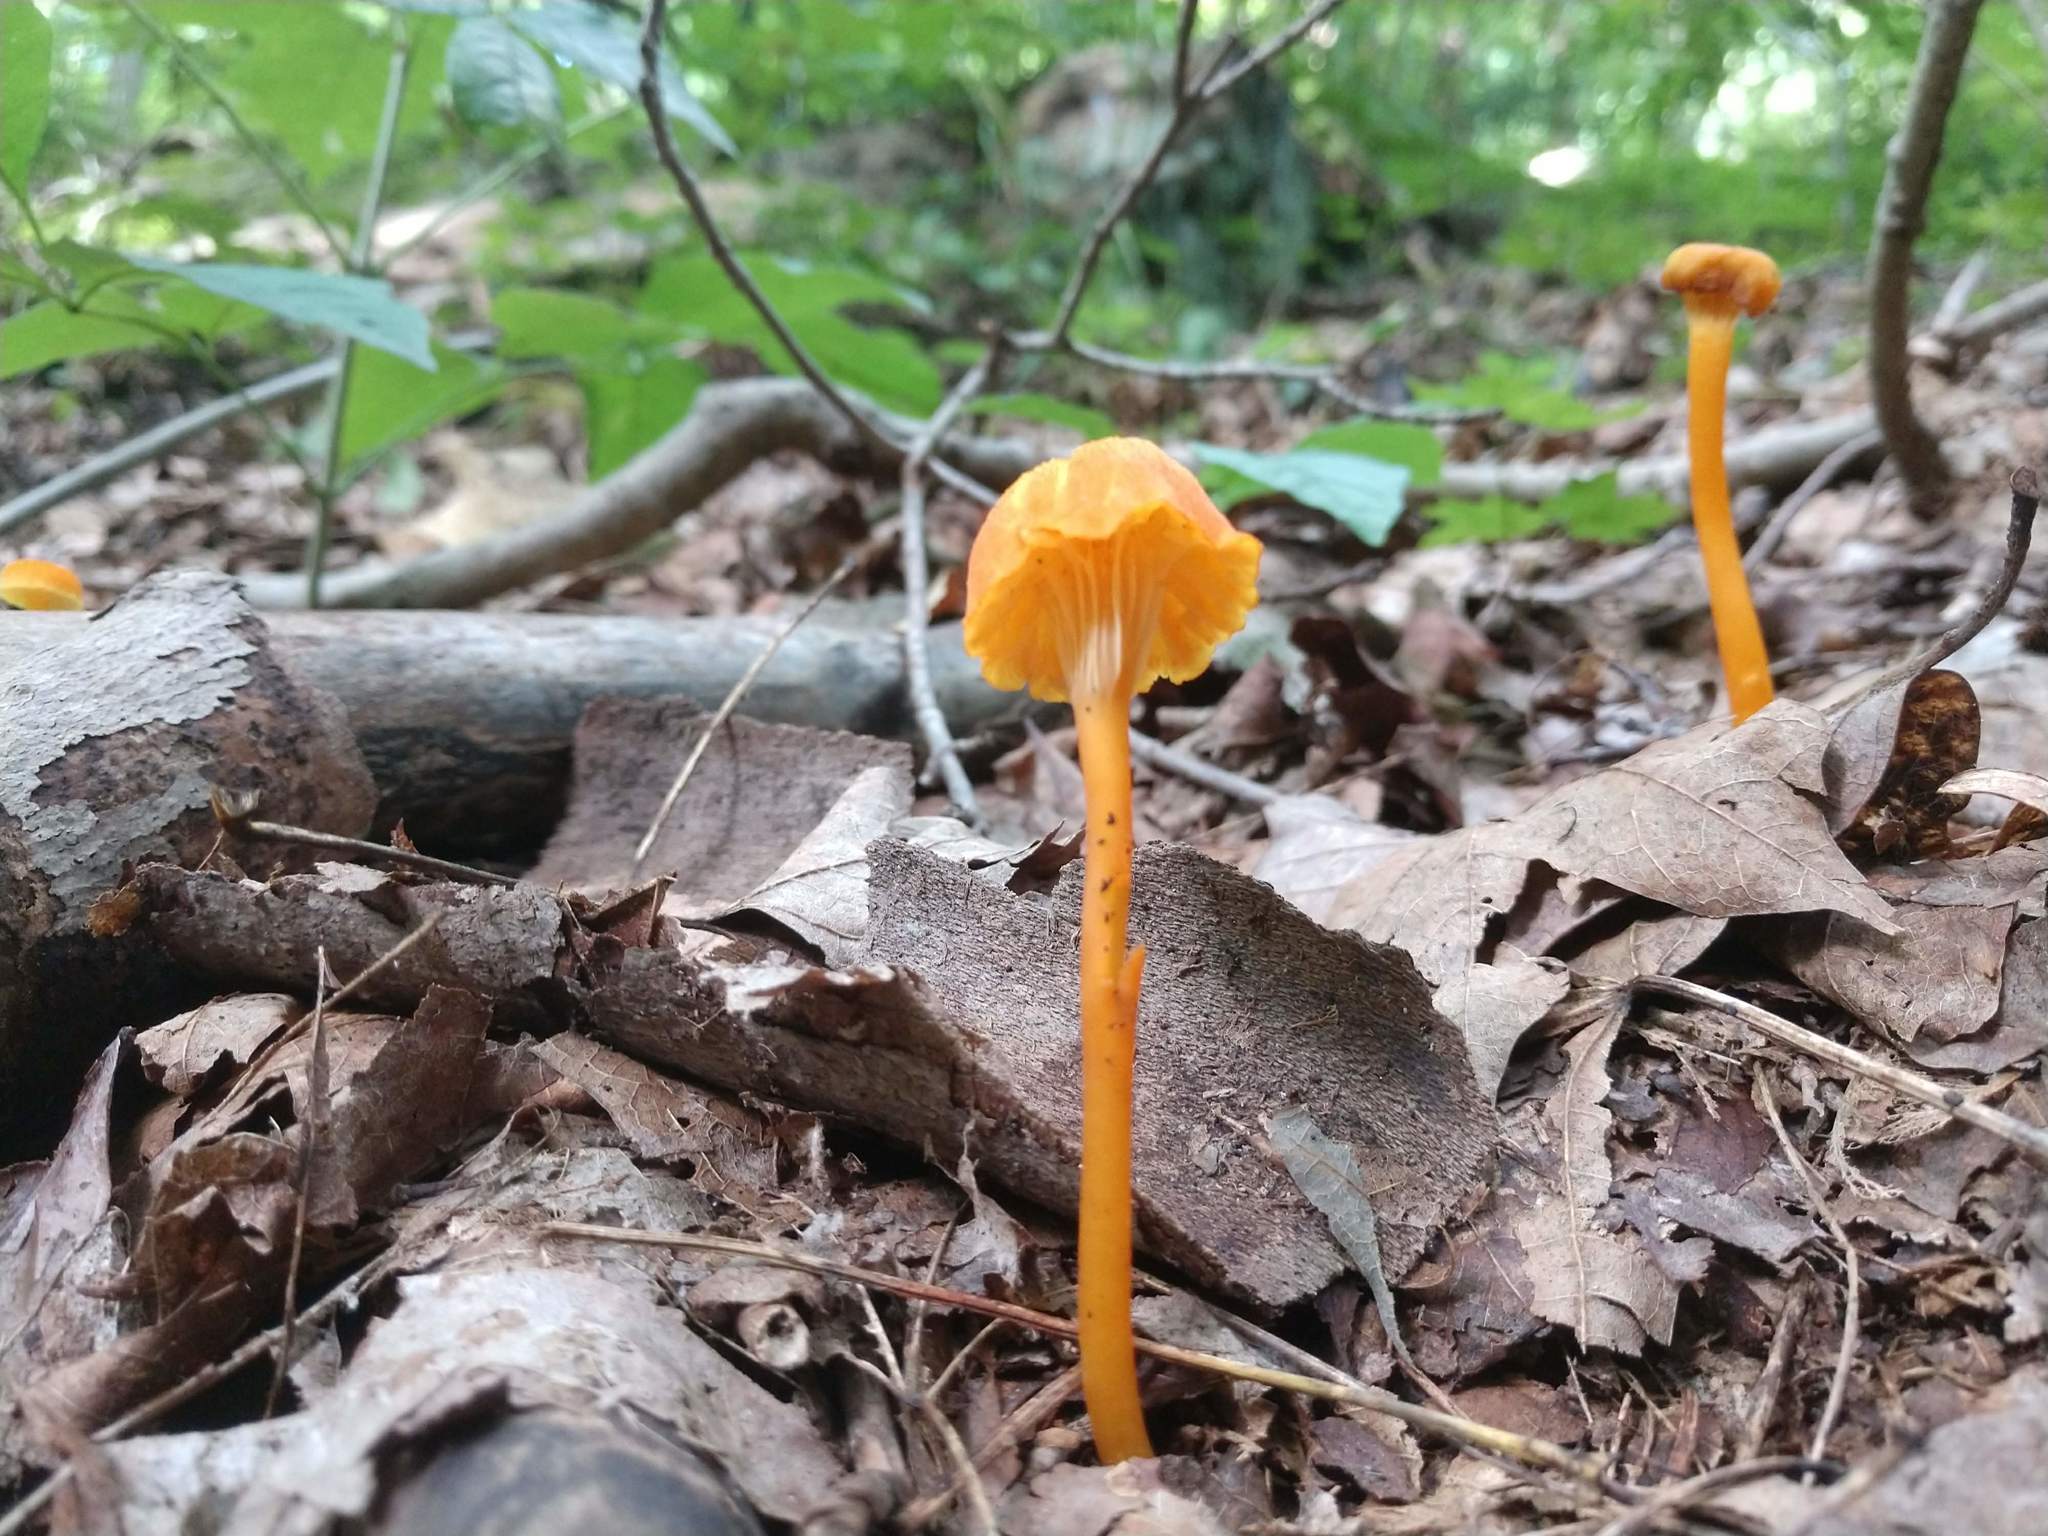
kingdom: Fungi
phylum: Basidiomycota
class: Agaricomycetes
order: Agaricales
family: Hygrophoraceae
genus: Hygrocybe
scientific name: Hygrocybe cantharellus
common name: Goblet waxcap
